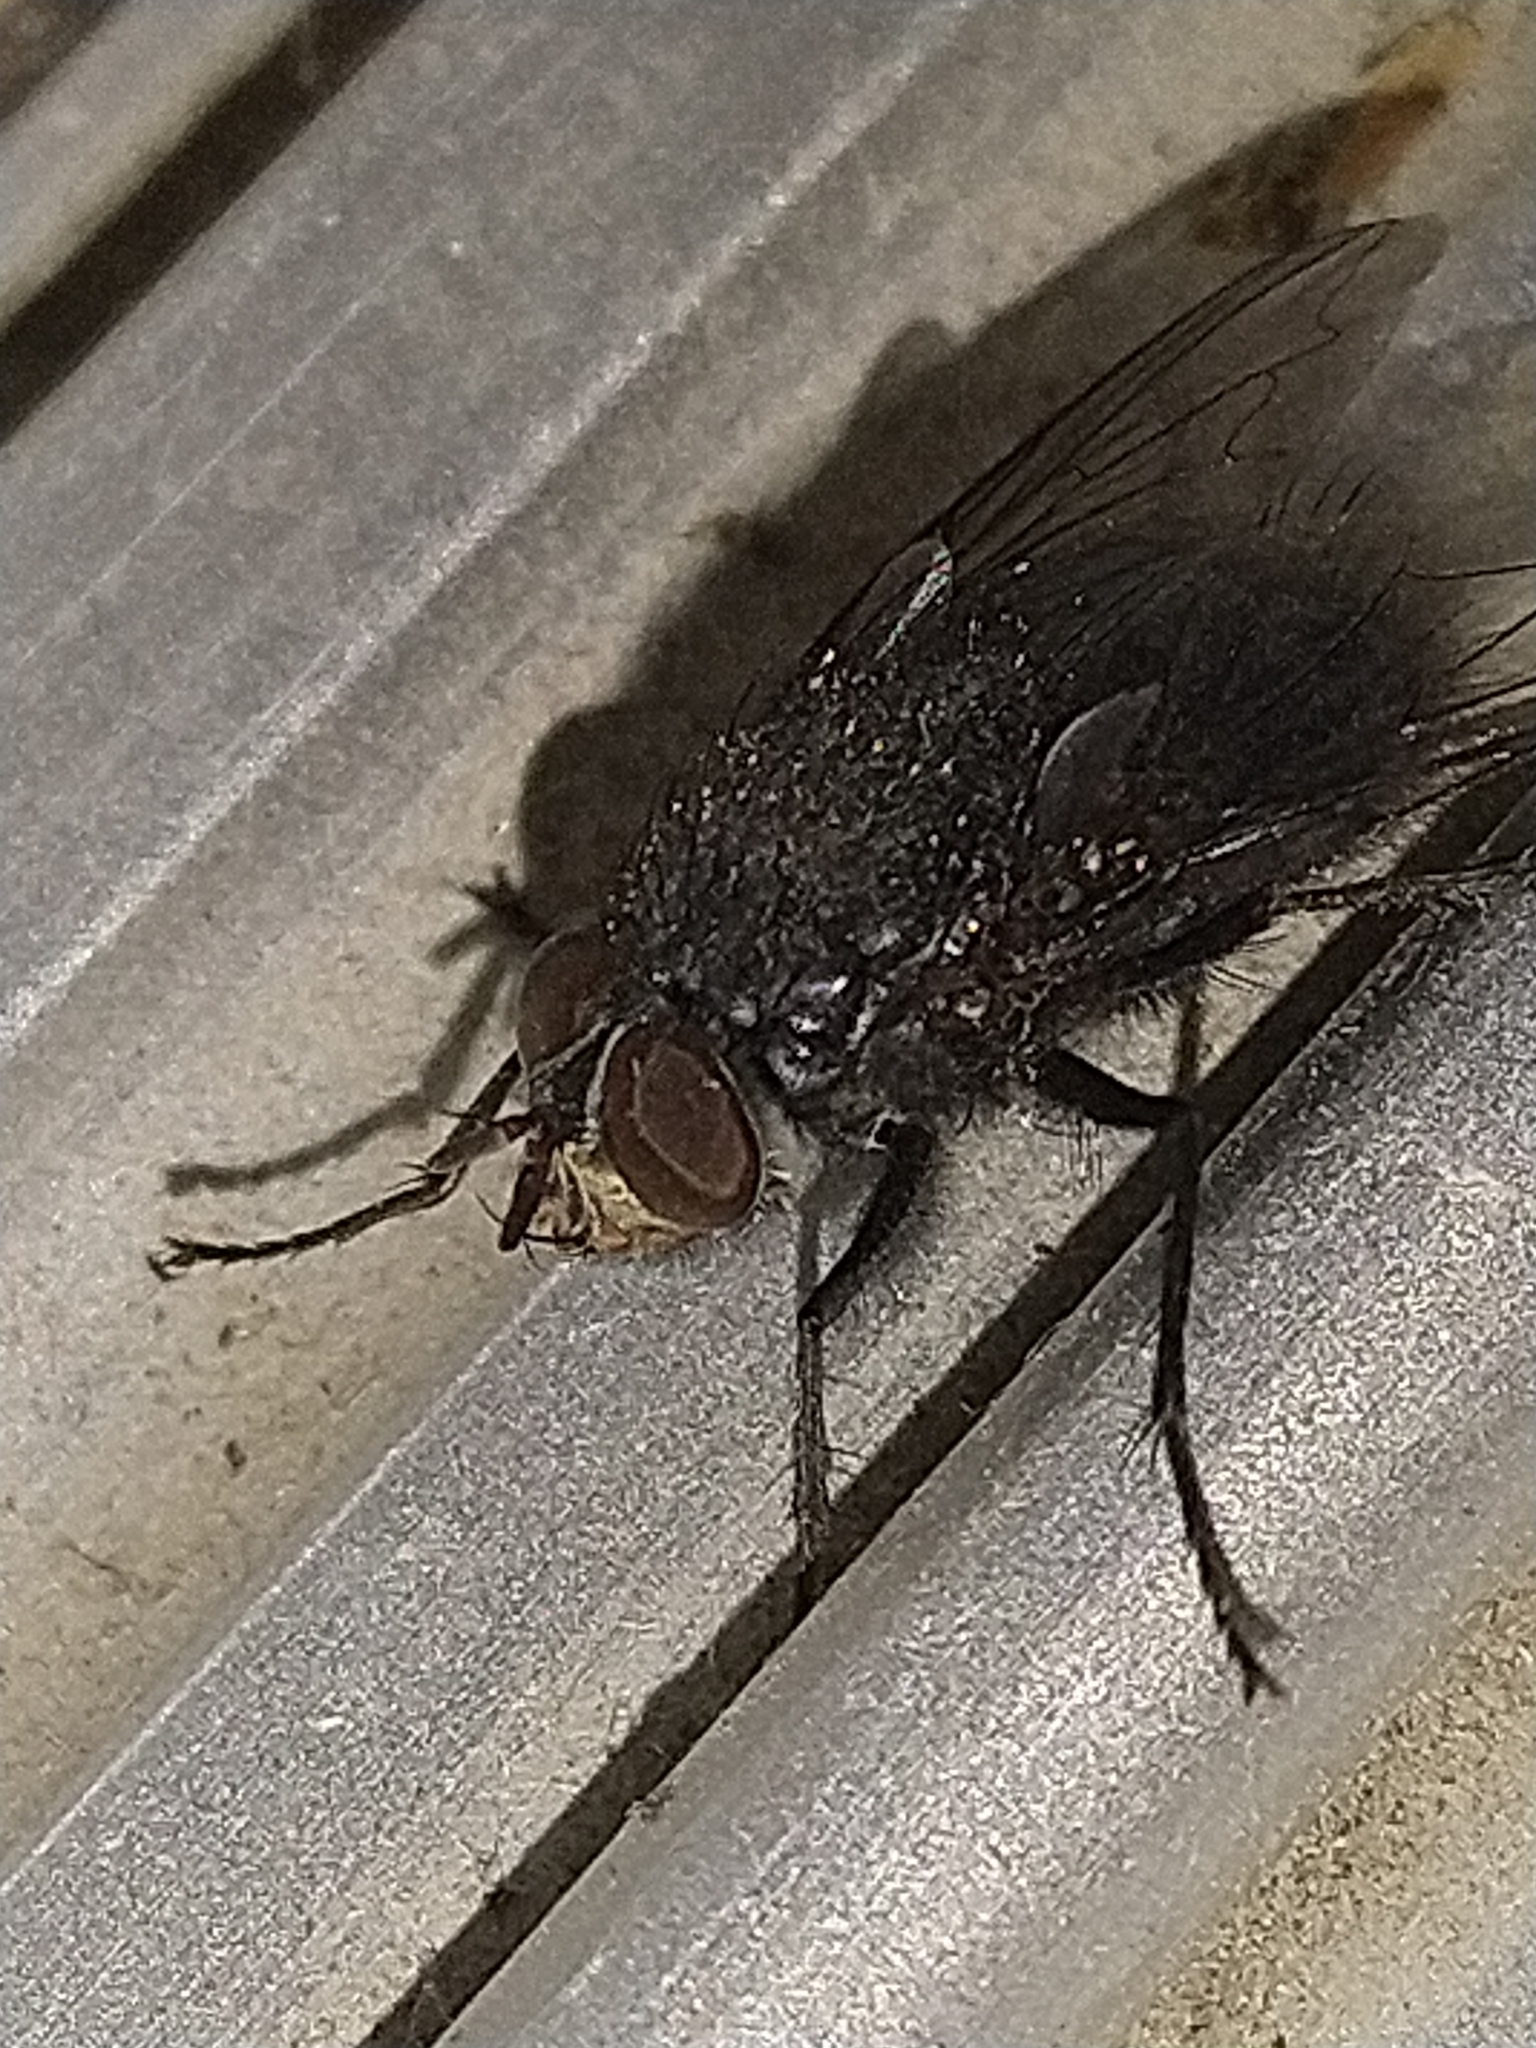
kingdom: Animalia
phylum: Arthropoda
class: Insecta
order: Diptera
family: Calliphoridae
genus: Calliphora
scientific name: Calliphora vicina
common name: Common blow flie
